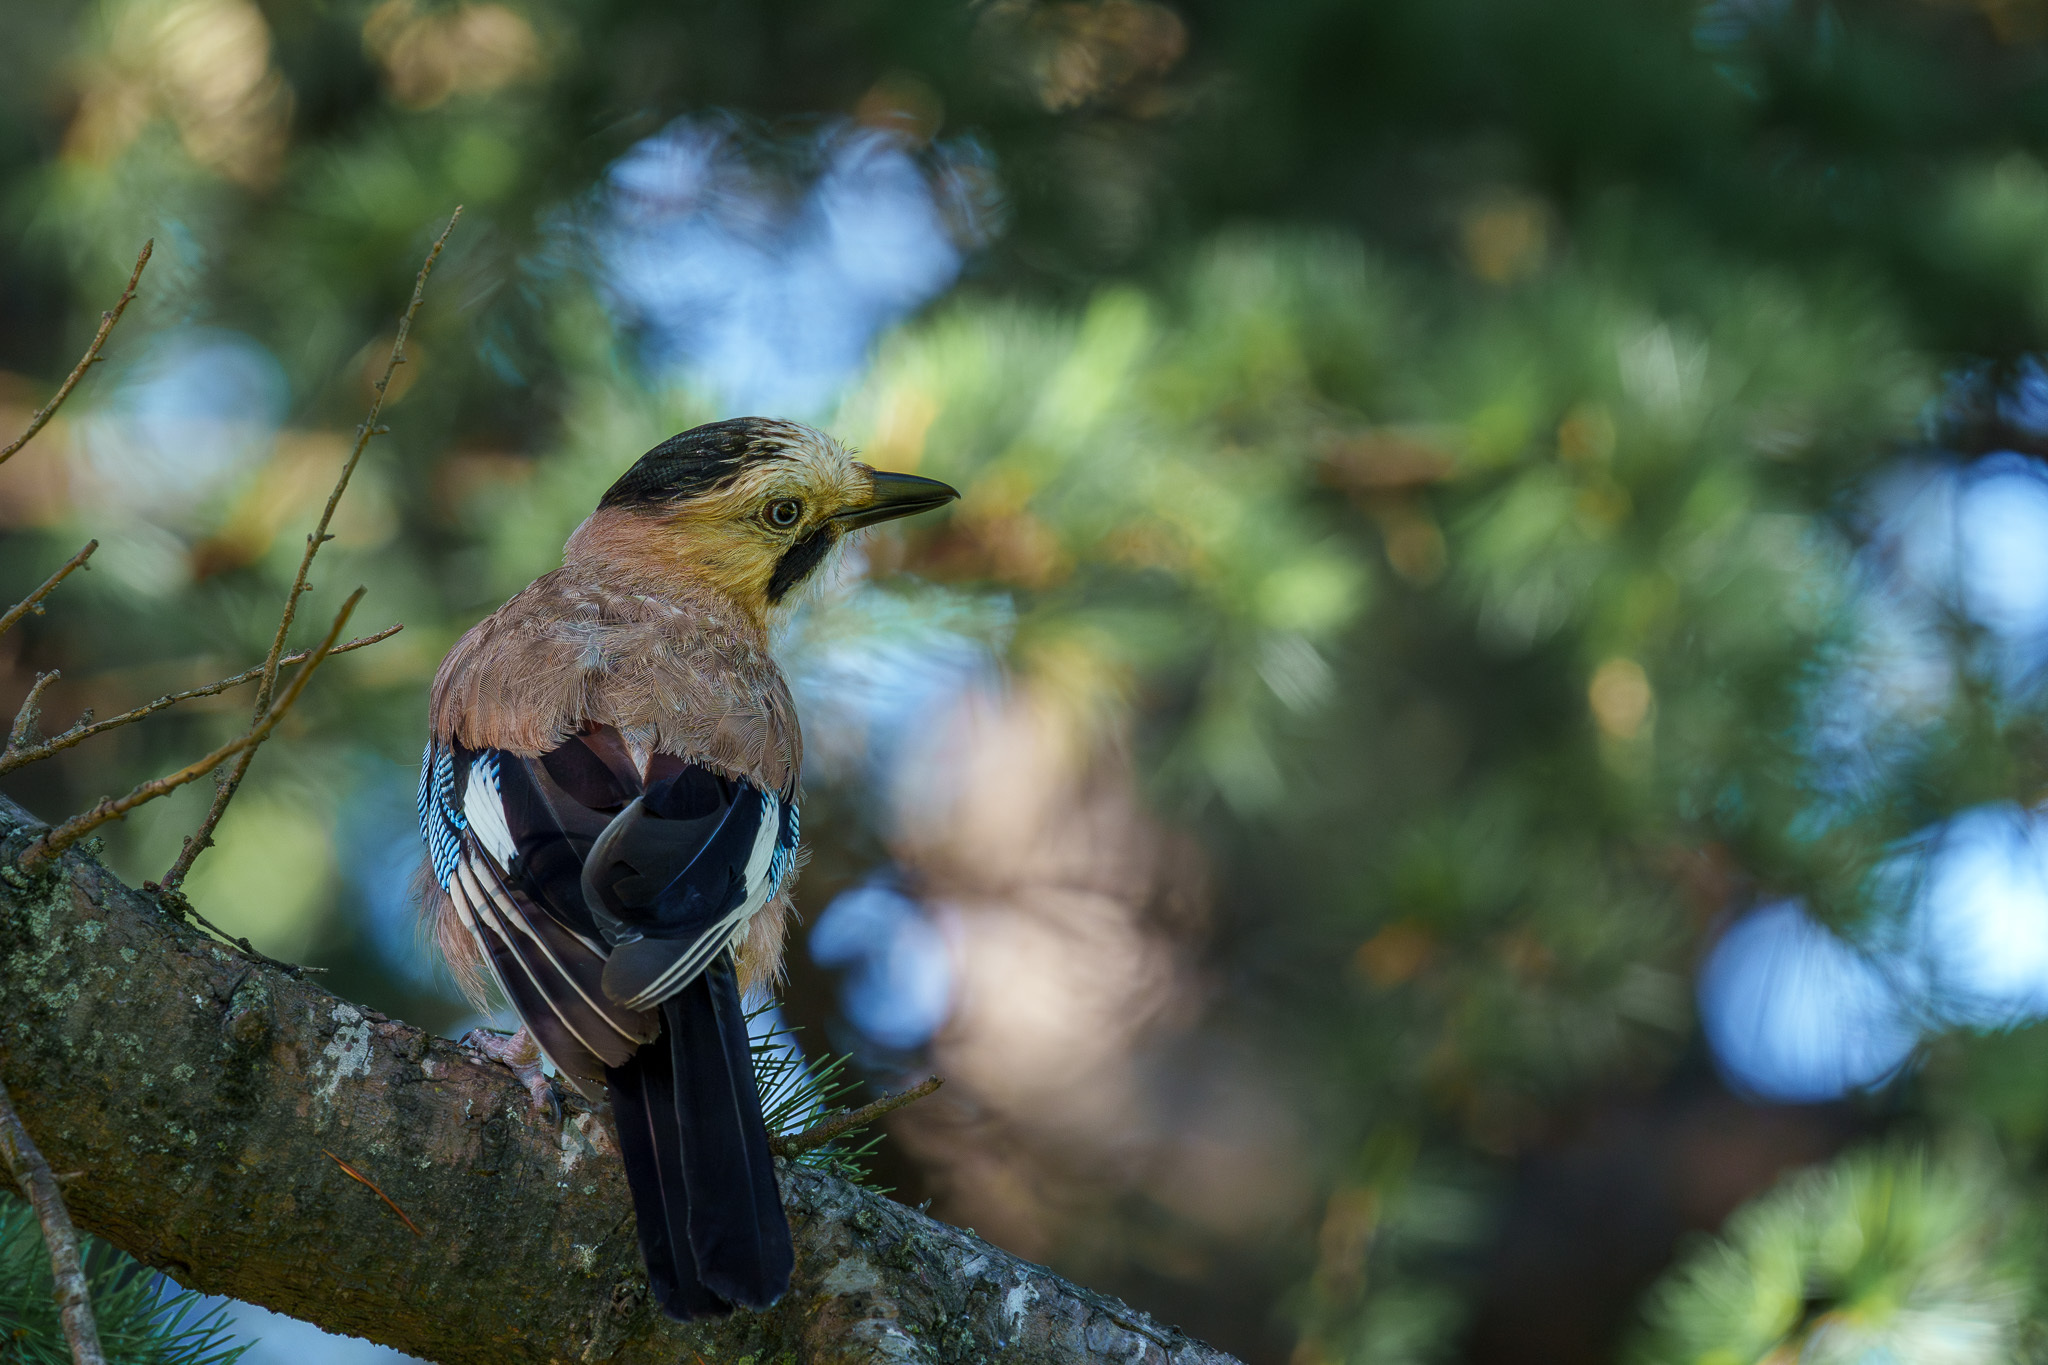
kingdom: Animalia
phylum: Chordata
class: Aves
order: Passeriformes
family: Corvidae
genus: Garrulus
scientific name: Garrulus glandarius
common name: Eurasian jay
